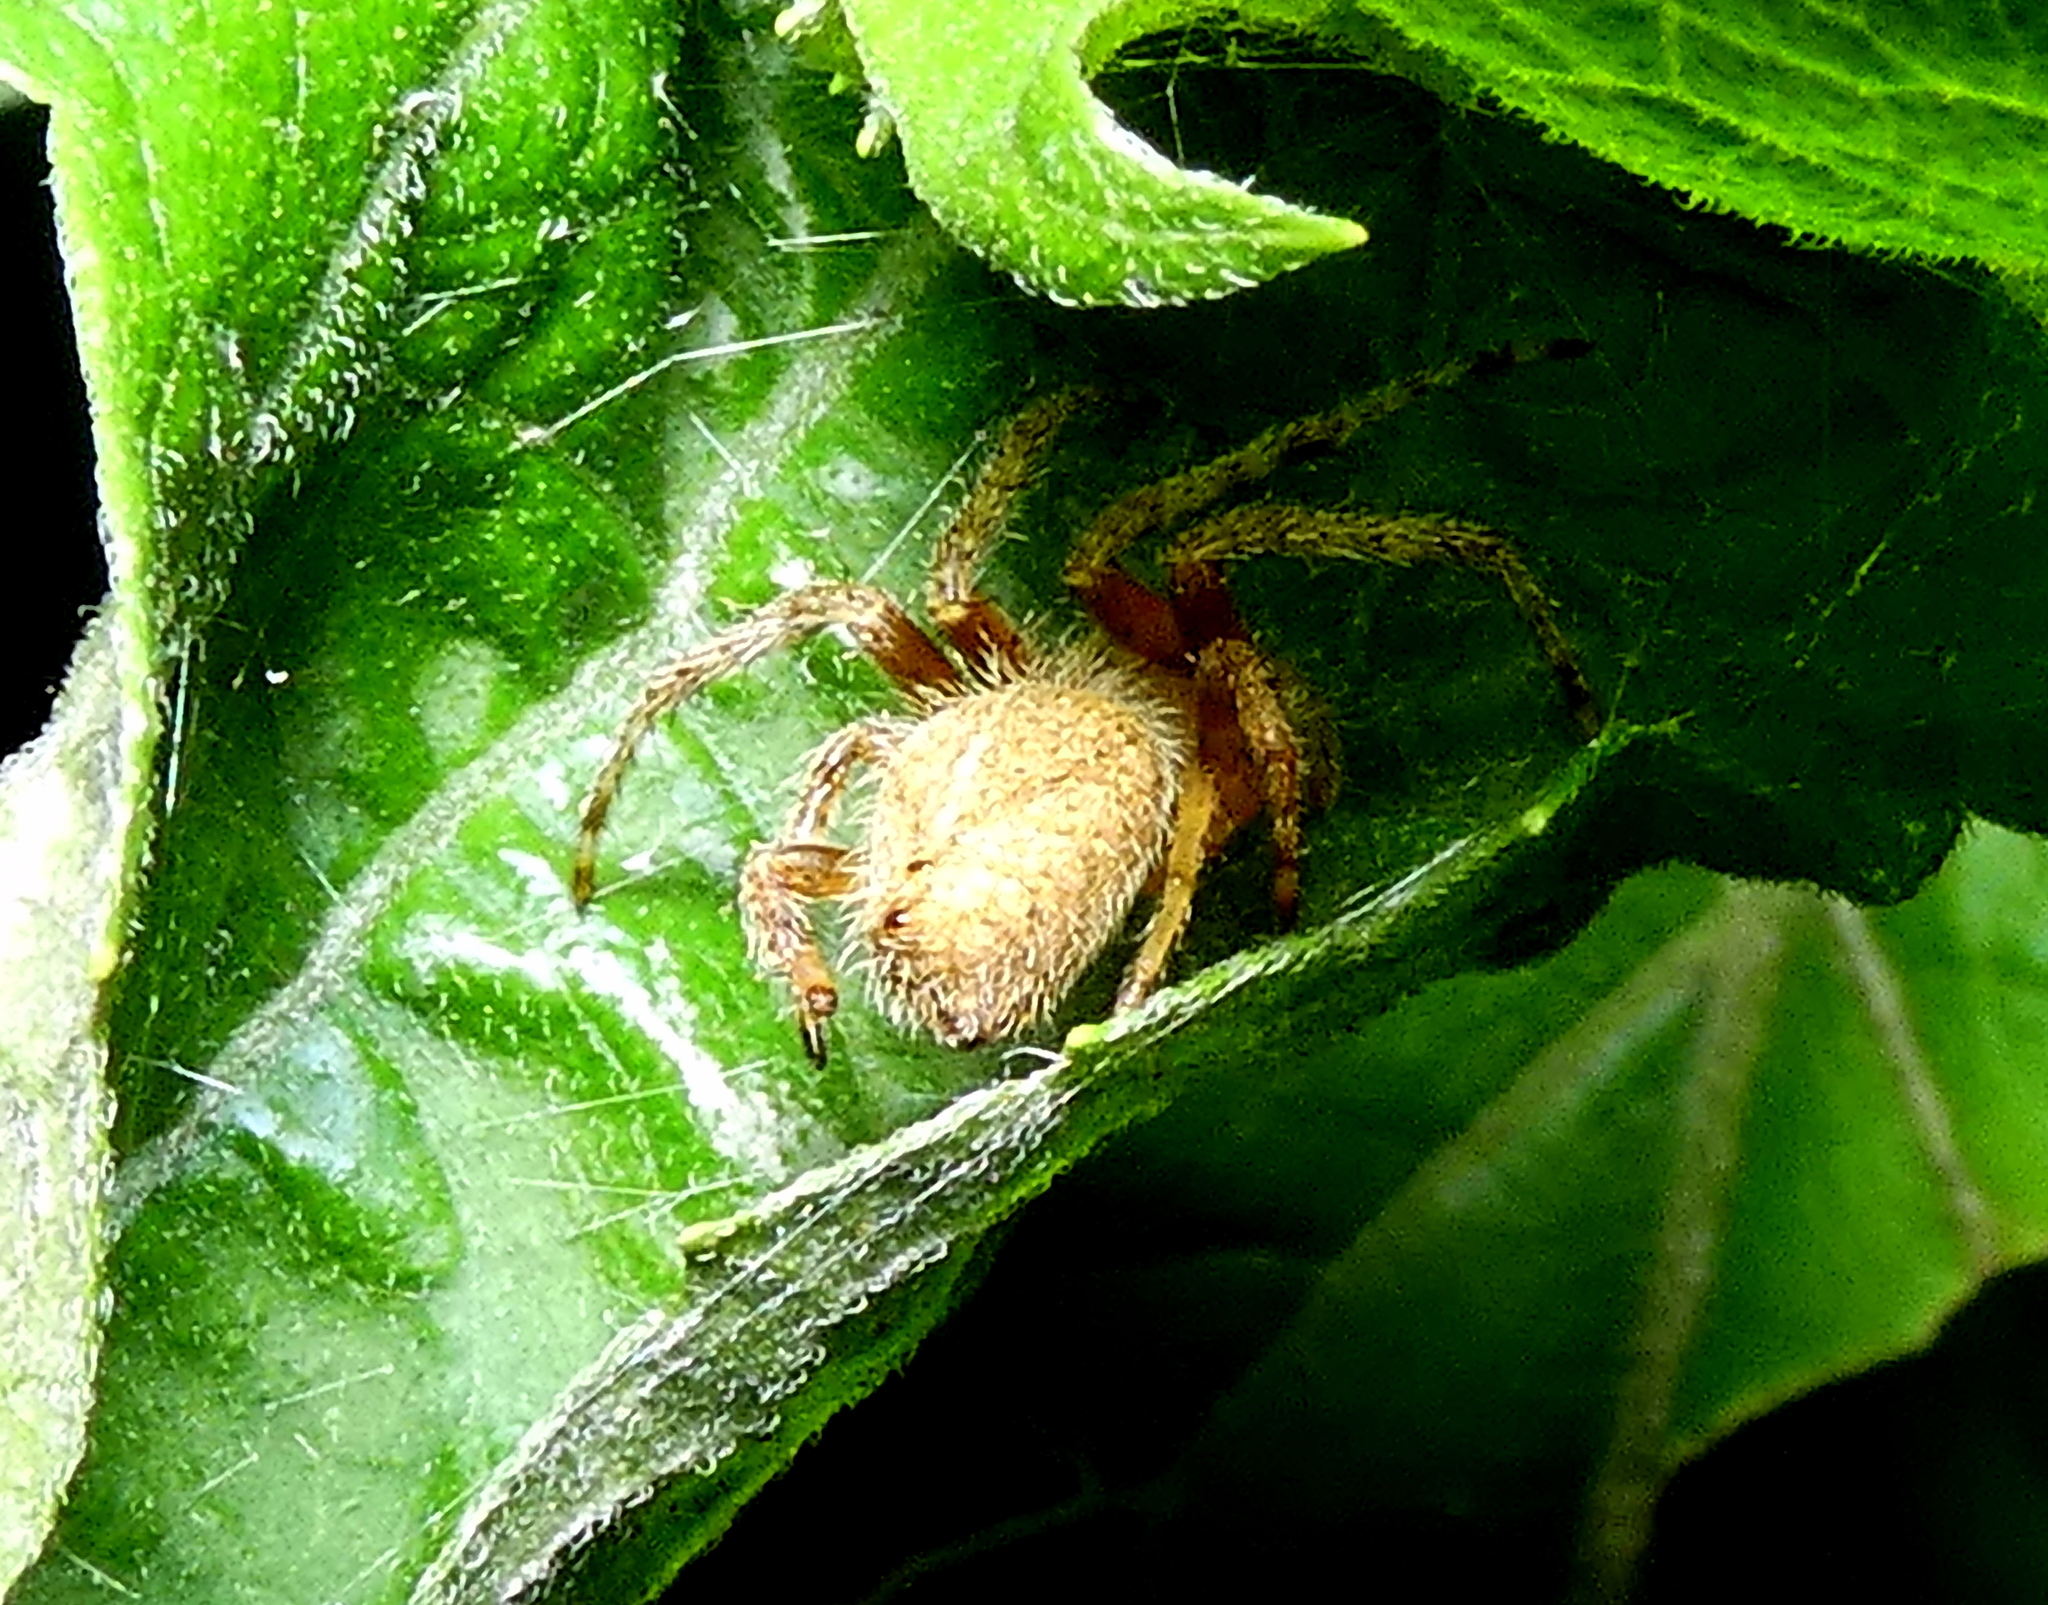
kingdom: Animalia
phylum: Arthropoda
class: Arachnida
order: Araneae
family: Araneidae
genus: Eriophora
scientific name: Eriophora edax
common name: Orb weavers
